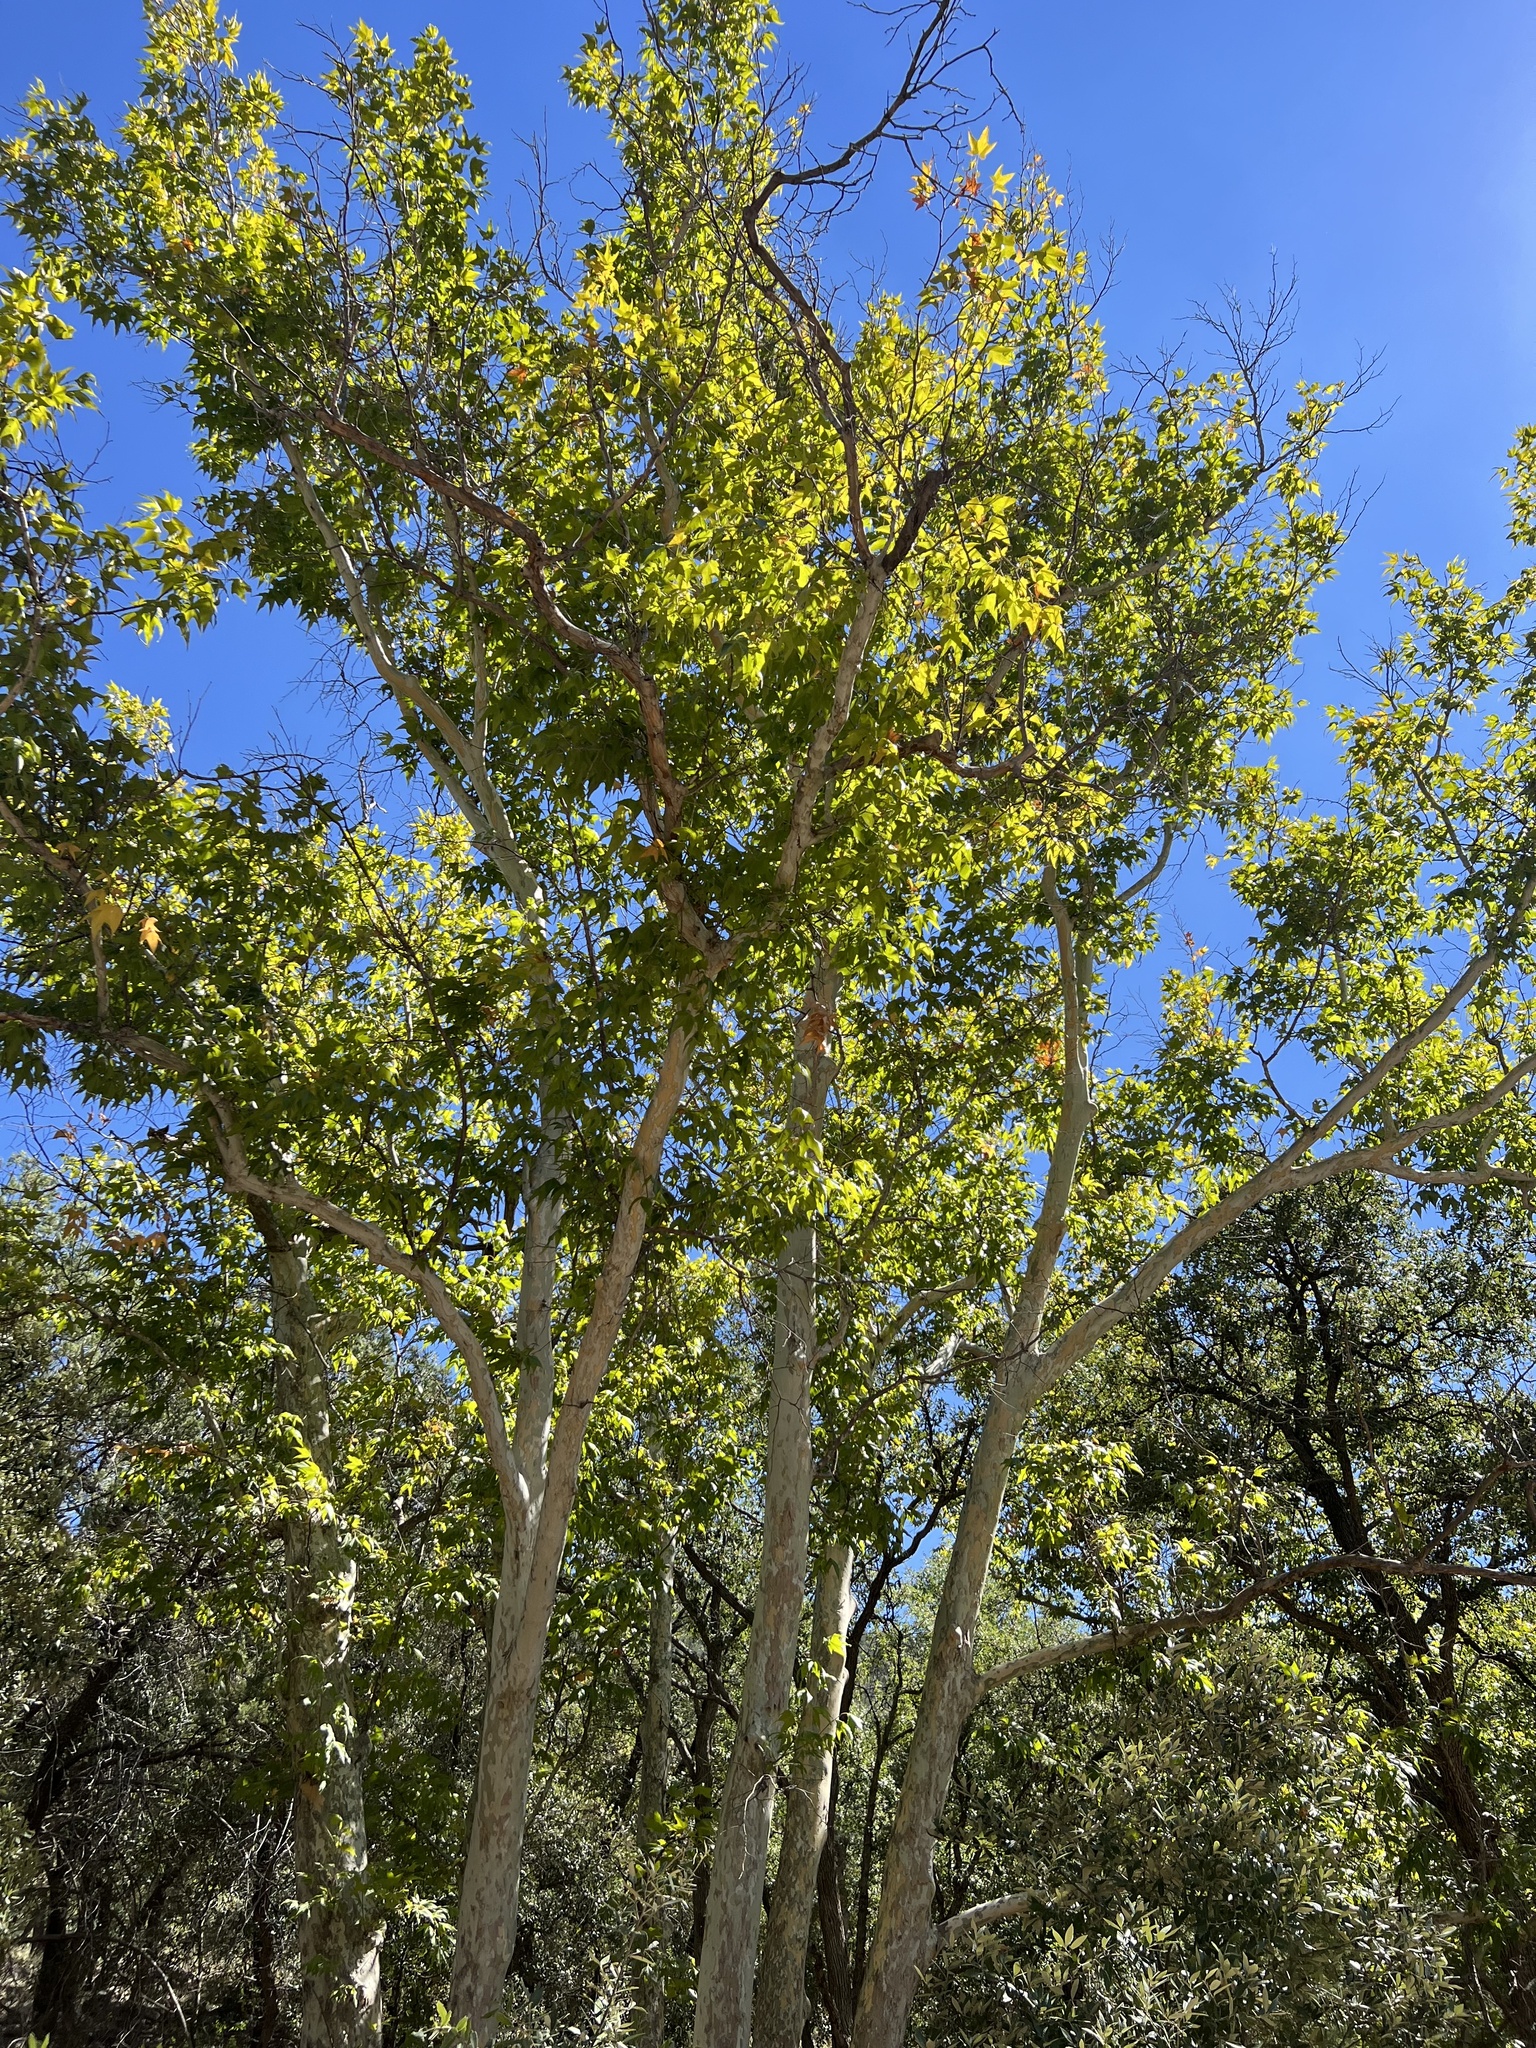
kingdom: Plantae
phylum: Tracheophyta
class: Magnoliopsida
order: Proteales
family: Platanaceae
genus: Platanus
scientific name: Platanus wrightii
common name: Arizona sycamore
